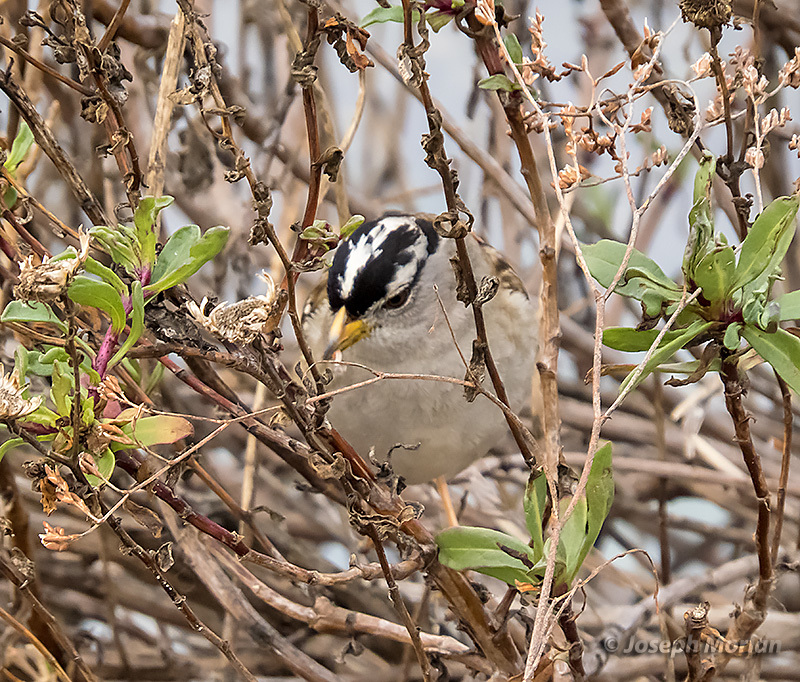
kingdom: Animalia
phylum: Chordata
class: Aves
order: Passeriformes
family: Passerellidae
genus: Zonotrichia
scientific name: Zonotrichia leucophrys
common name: White-crowned sparrow
